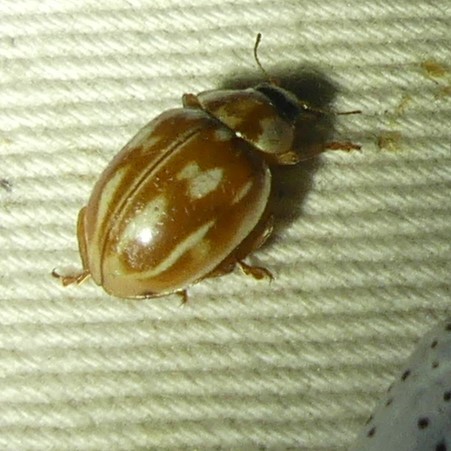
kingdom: Animalia
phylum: Arthropoda
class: Insecta
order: Coleoptera
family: Coccinellidae
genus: Myzia
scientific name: Myzia oblongoguttata
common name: Striped ladybird
